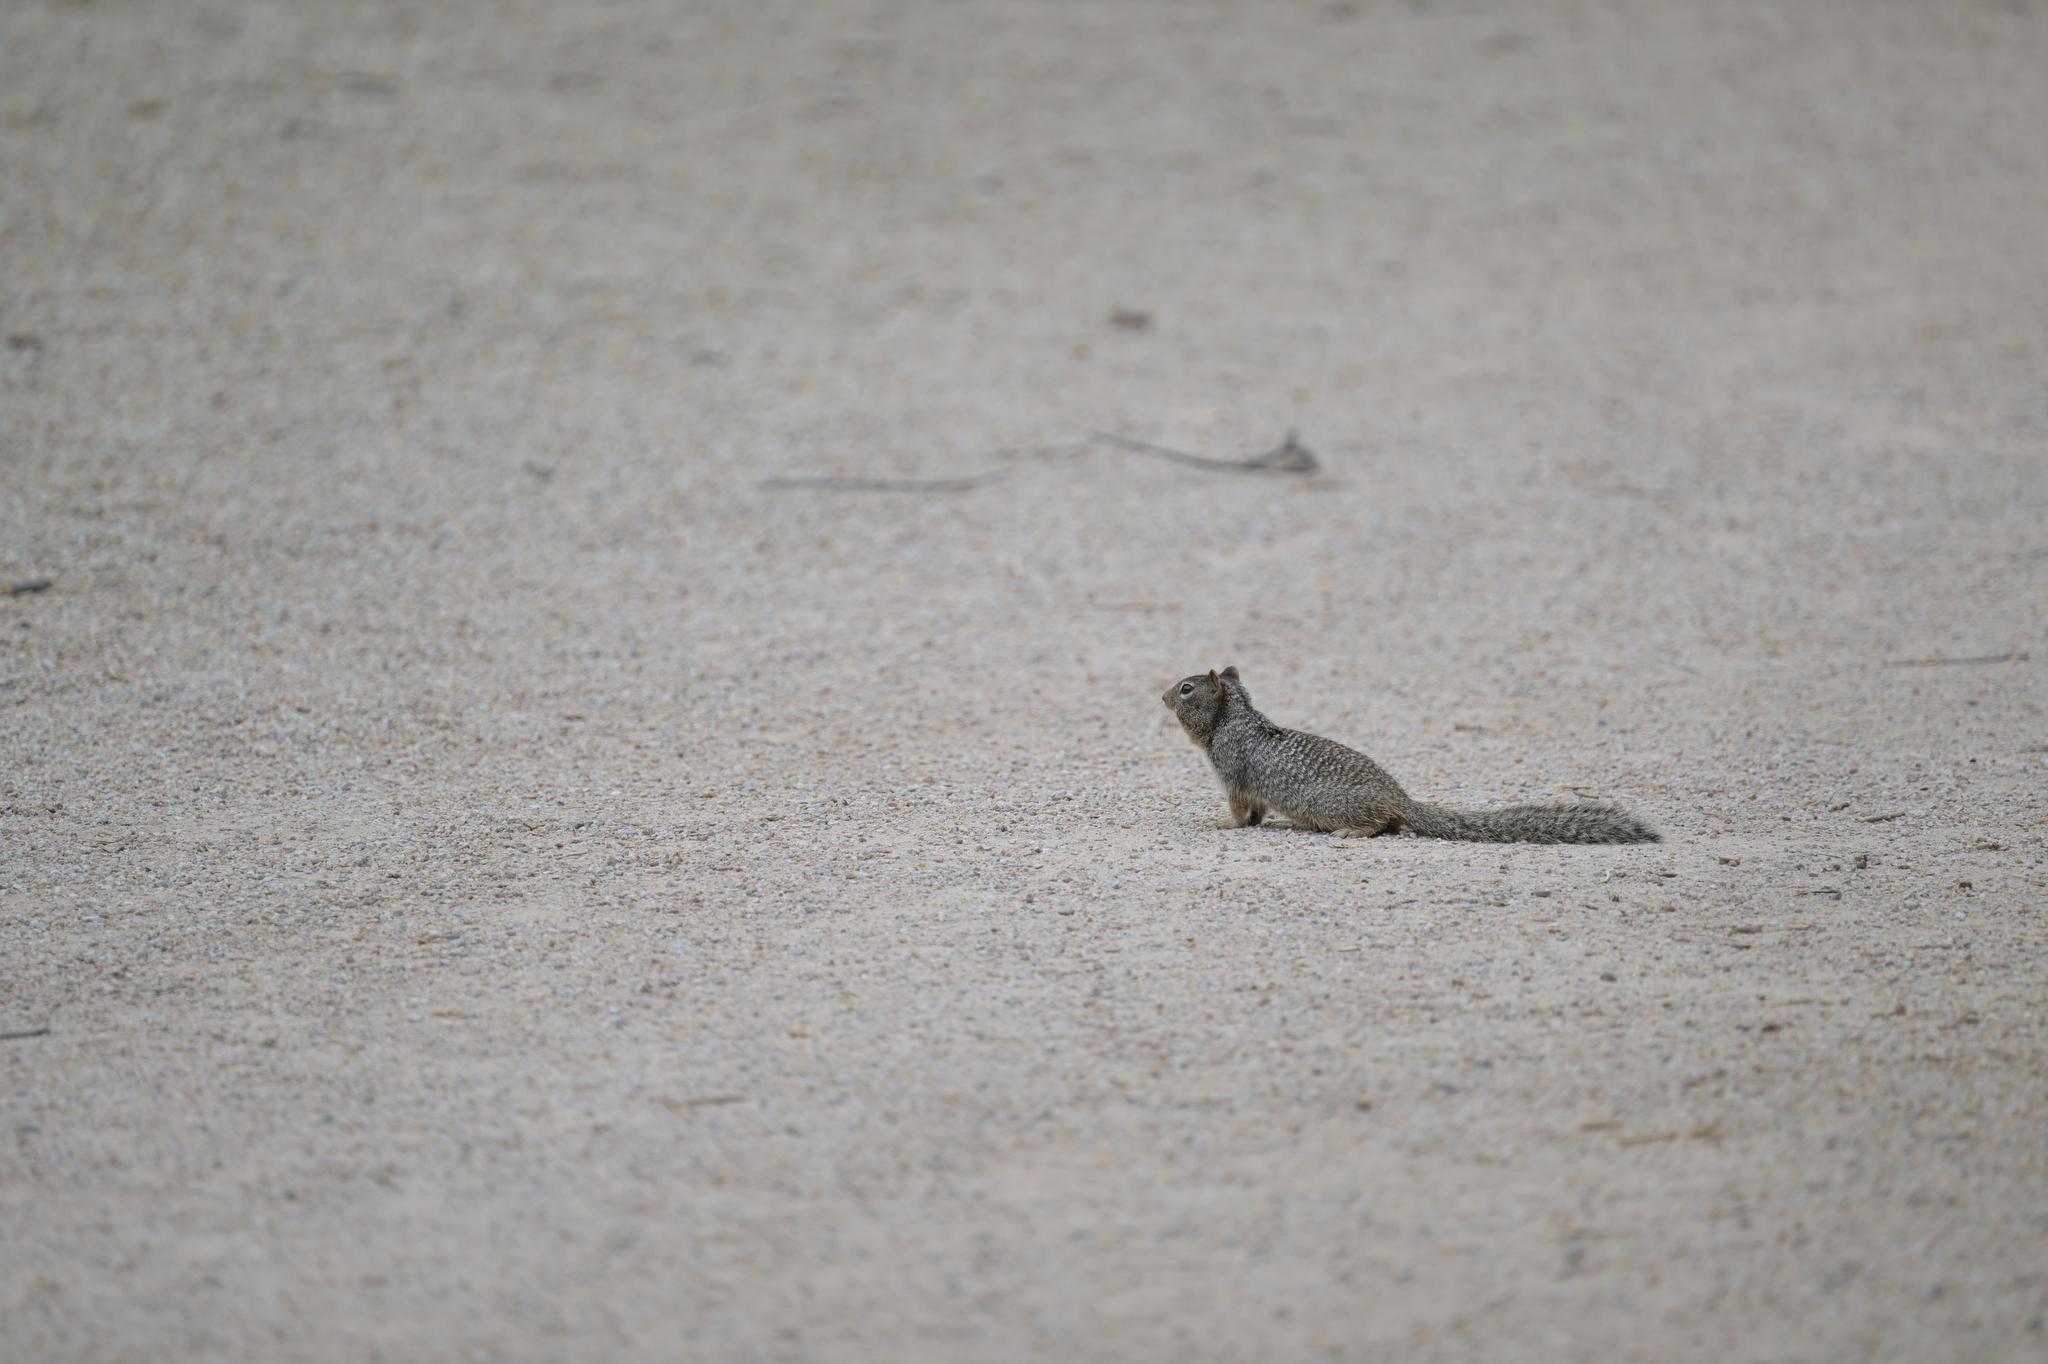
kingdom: Animalia
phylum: Chordata
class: Mammalia
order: Rodentia
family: Sciuridae
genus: Otospermophilus
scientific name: Otospermophilus variegatus
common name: Rock squirrel
